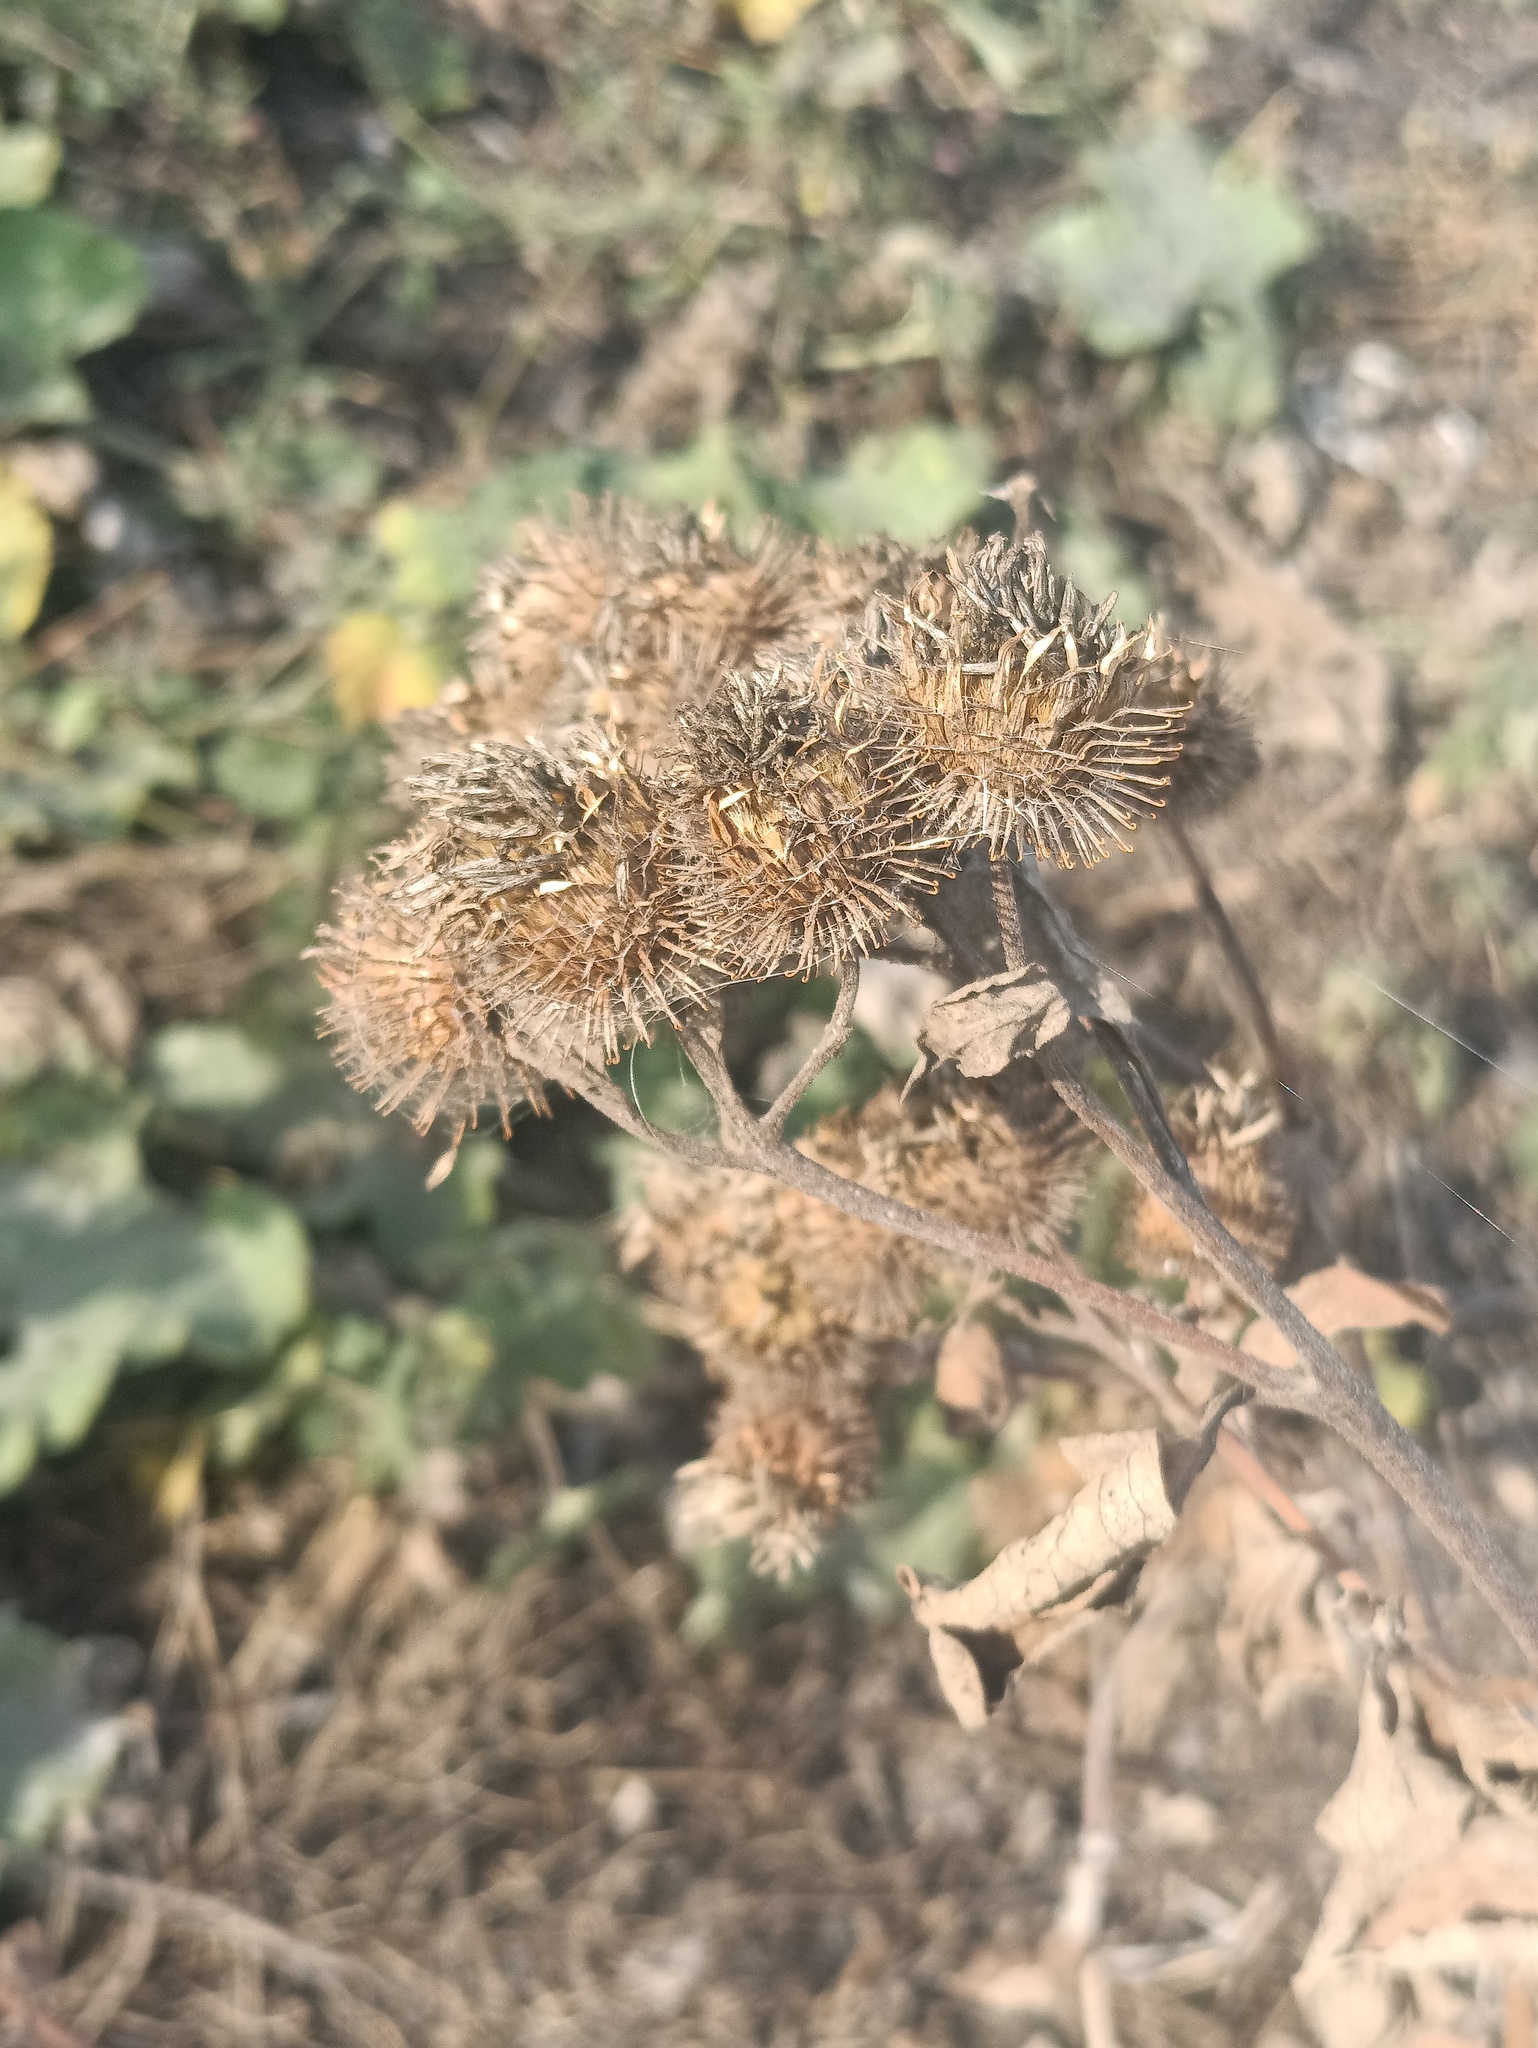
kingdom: Plantae
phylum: Tracheophyta
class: Magnoliopsida
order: Asterales
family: Asteraceae
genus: Arctium
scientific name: Arctium tomentosum
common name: Woolly burdock
